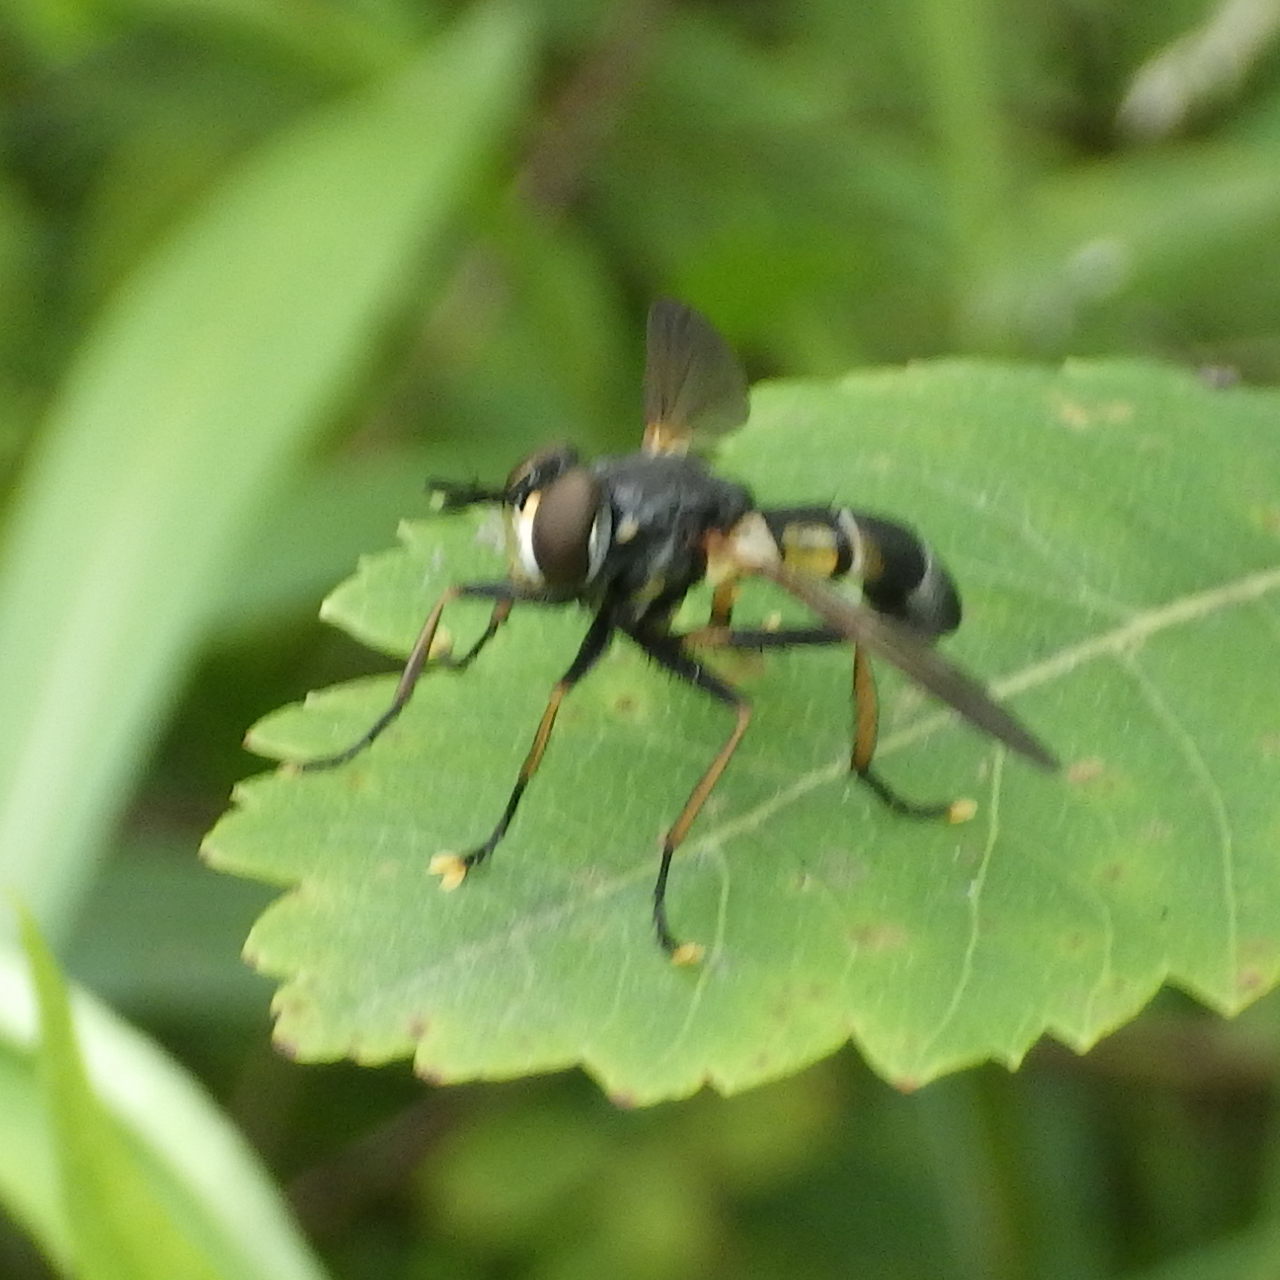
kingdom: Animalia
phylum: Arthropoda
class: Insecta
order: Diptera
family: Tachinidae
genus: Hemyda
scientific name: Hemyda aurata
